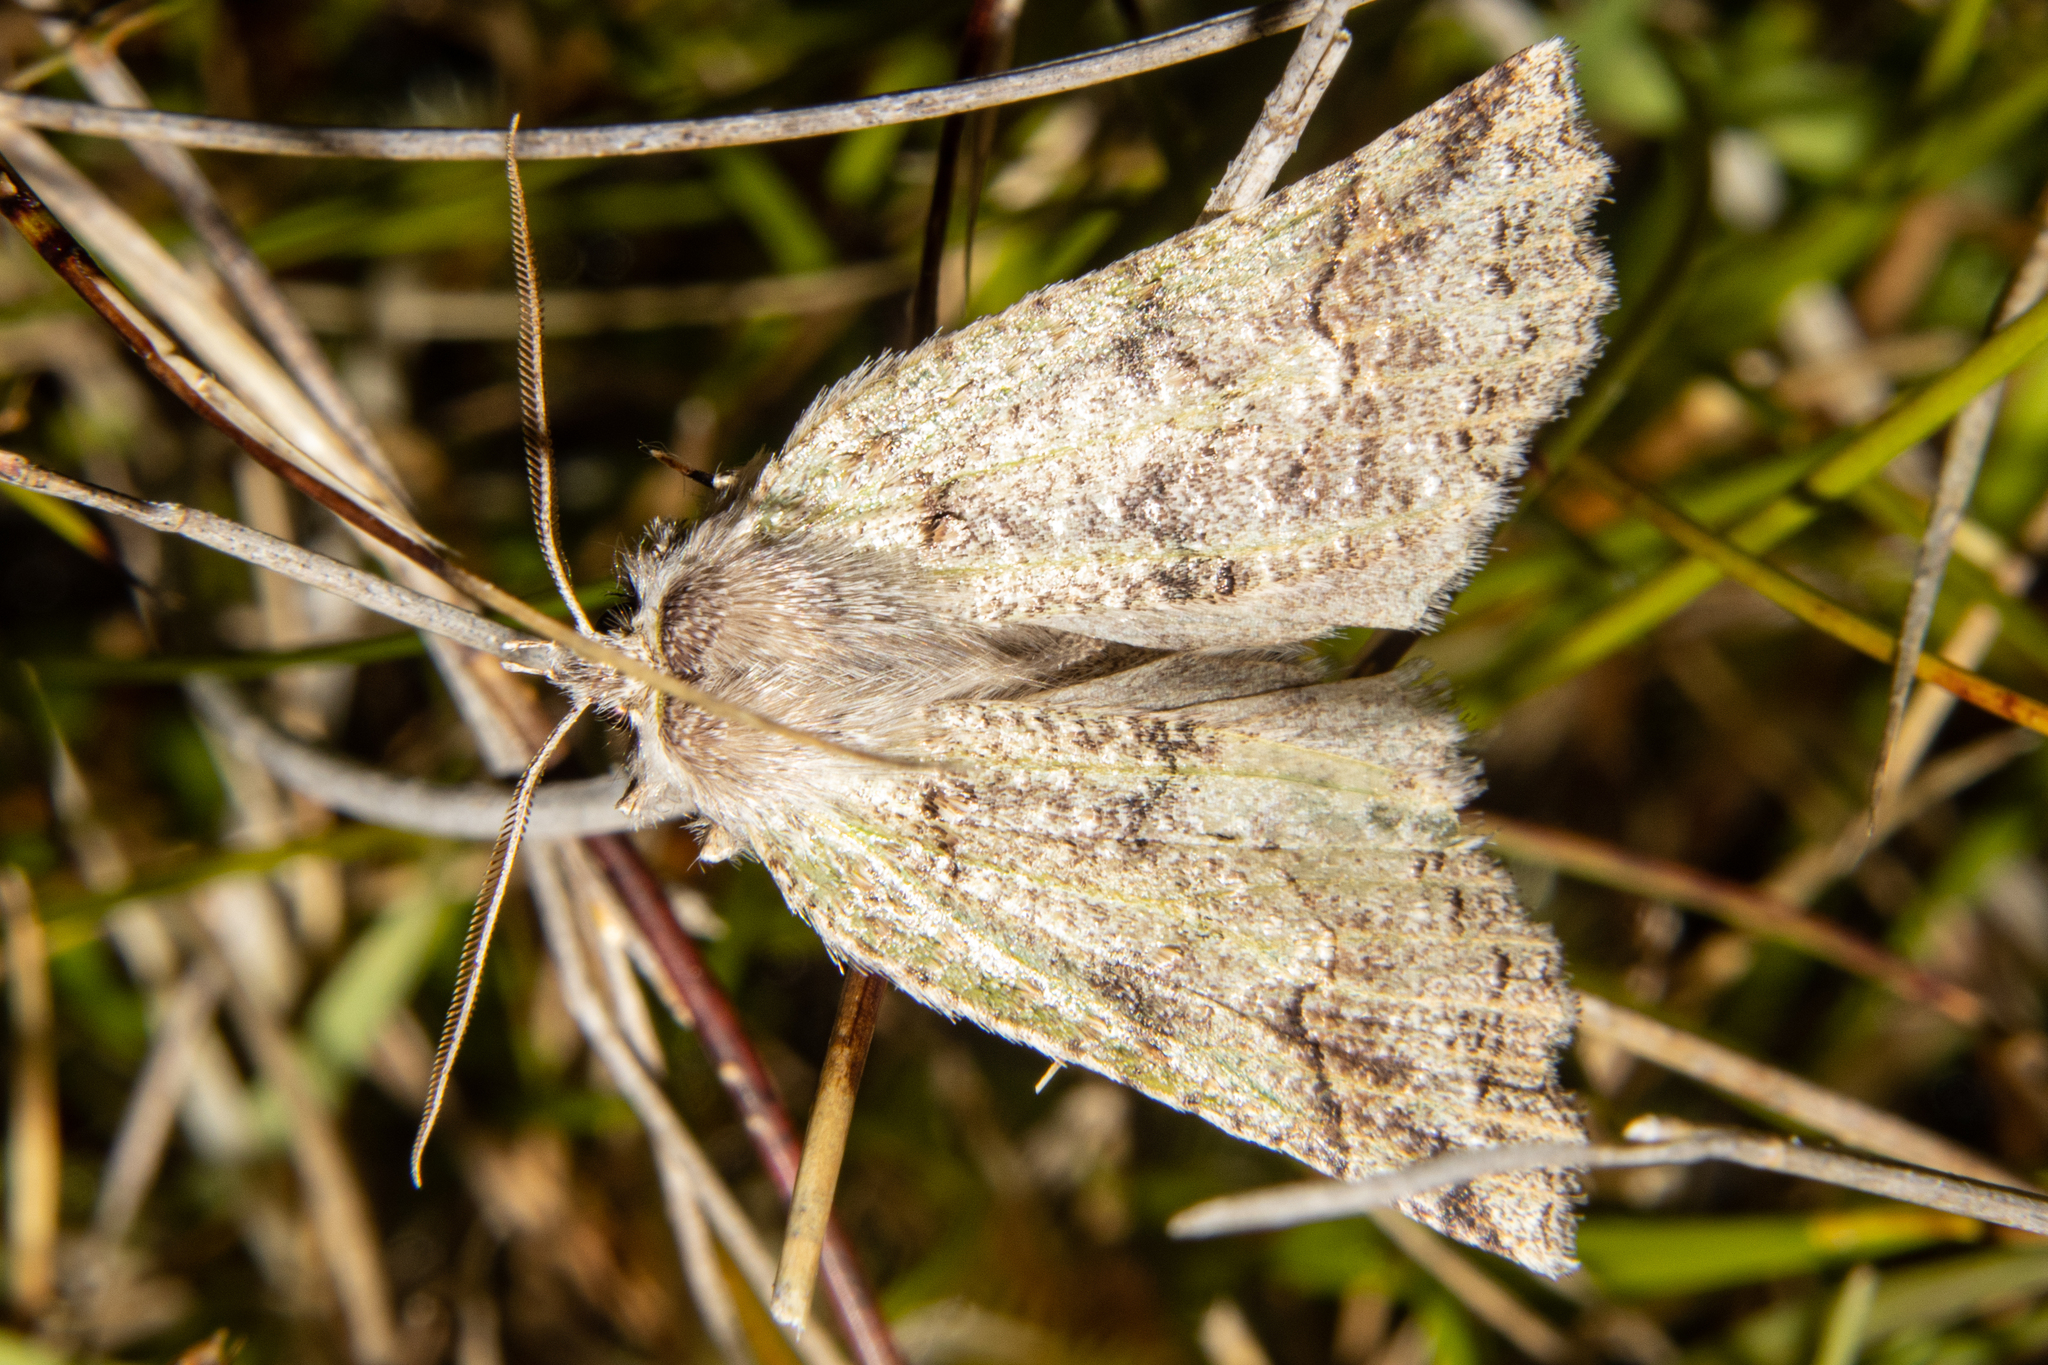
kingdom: Animalia
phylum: Arthropoda
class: Insecta
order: Lepidoptera
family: Geometridae
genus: Declana
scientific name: Declana floccosa
